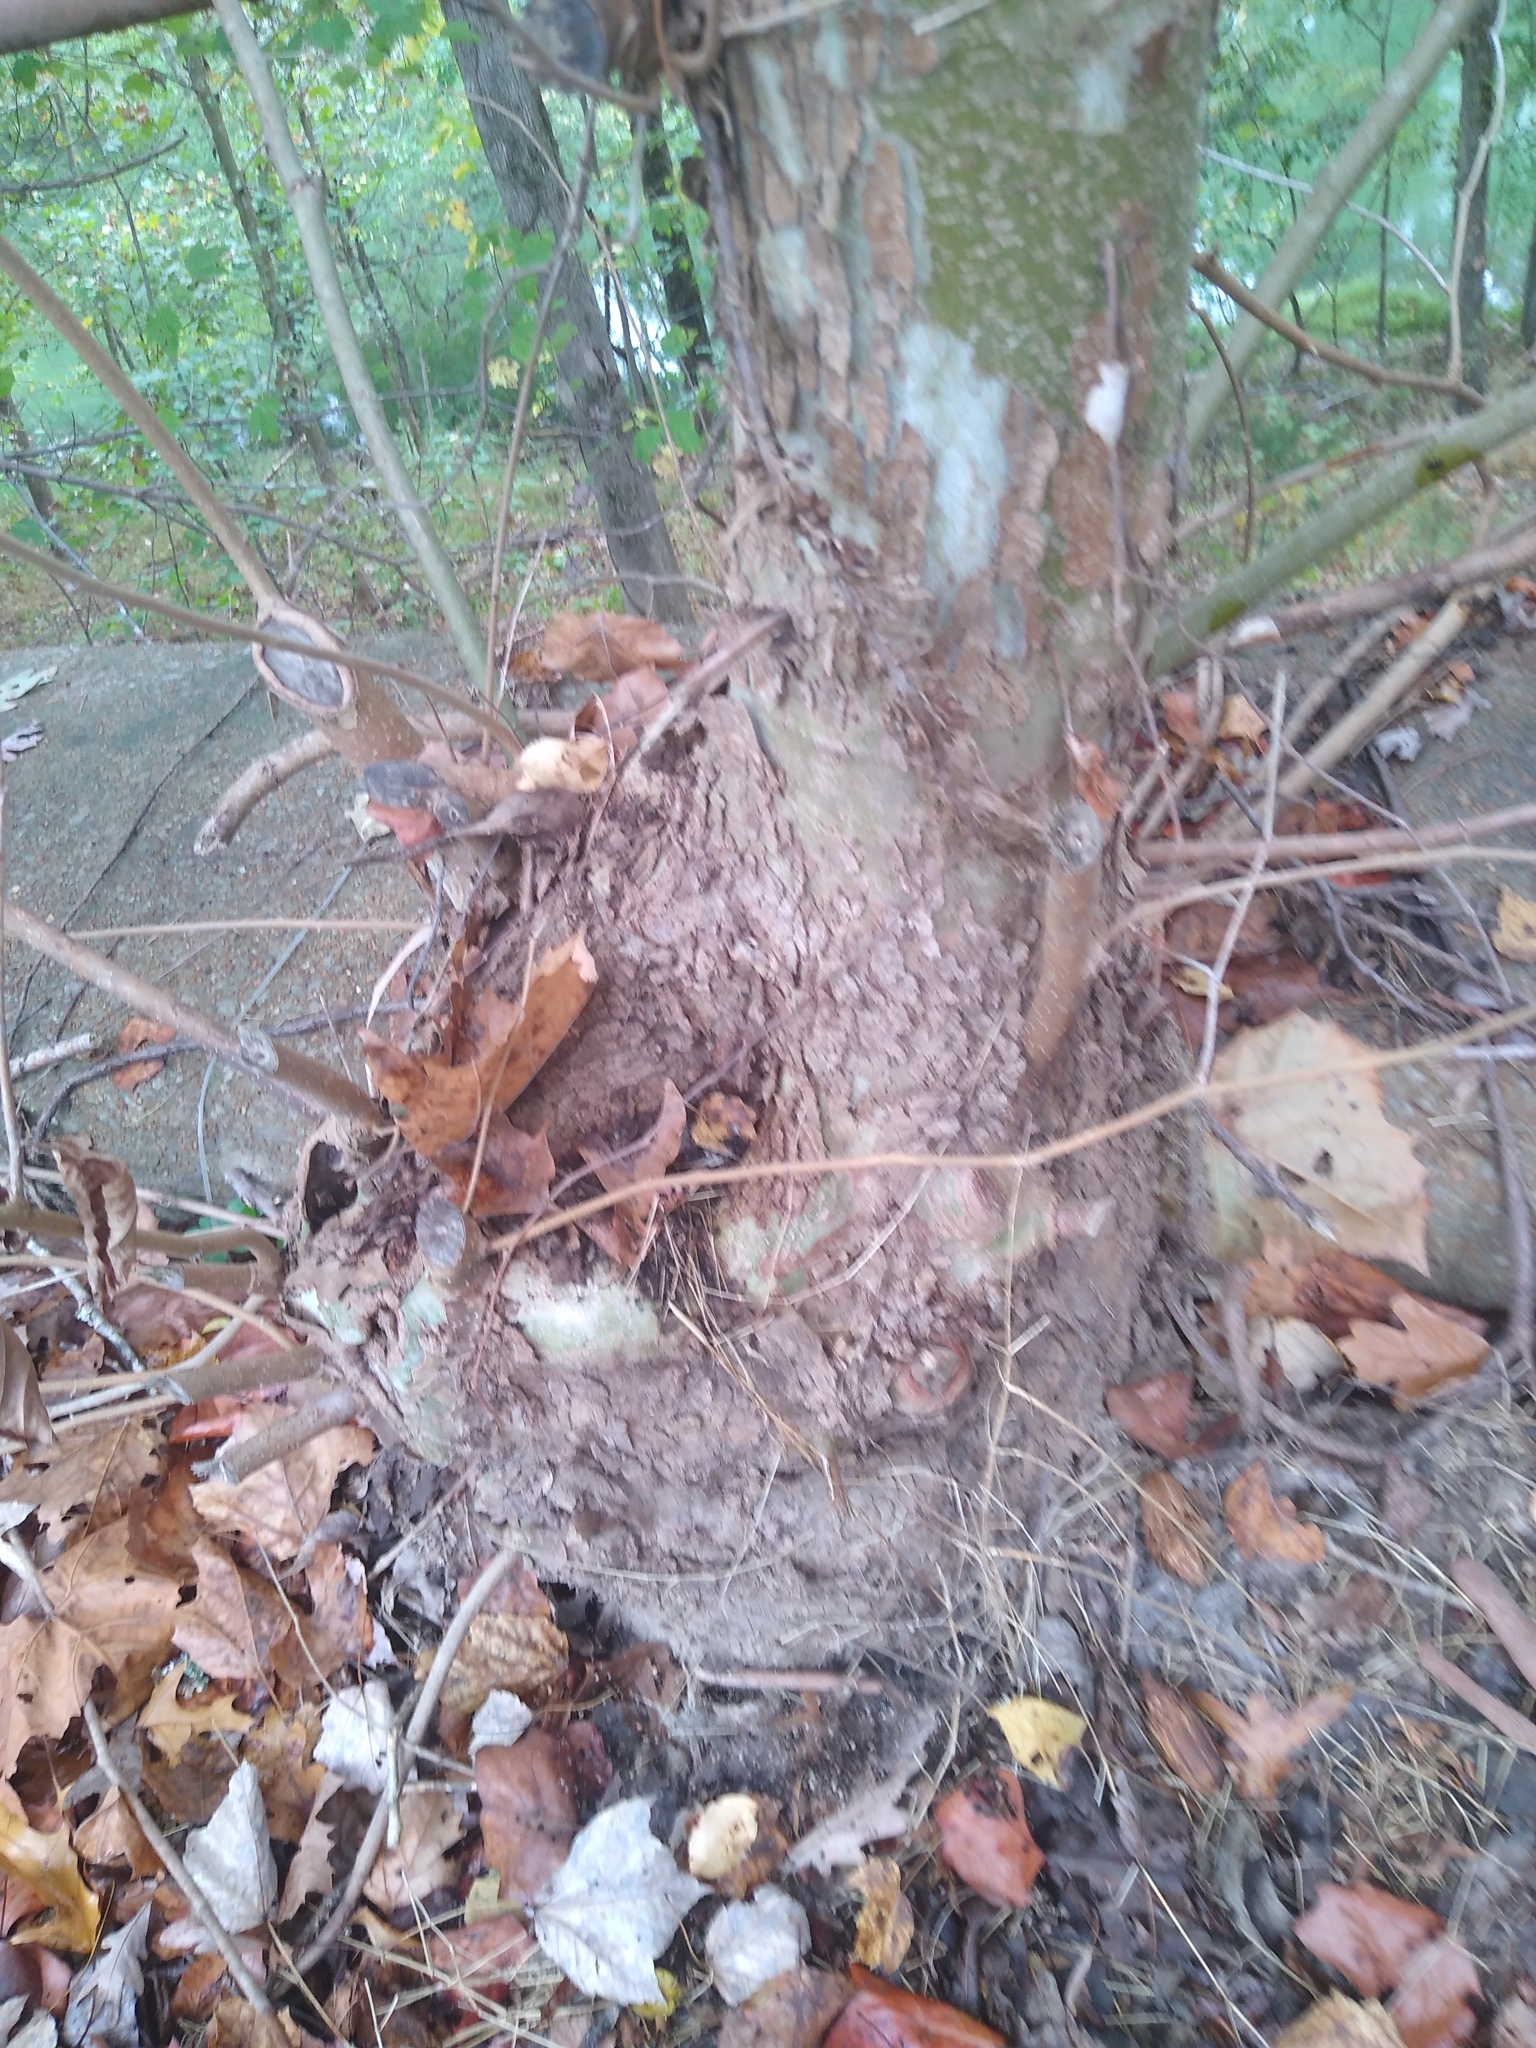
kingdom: Plantae
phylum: Tracheophyta
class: Magnoliopsida
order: Proteales
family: Platanaceae
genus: Platanus
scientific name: Platanus occidentalis
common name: American sycamore
